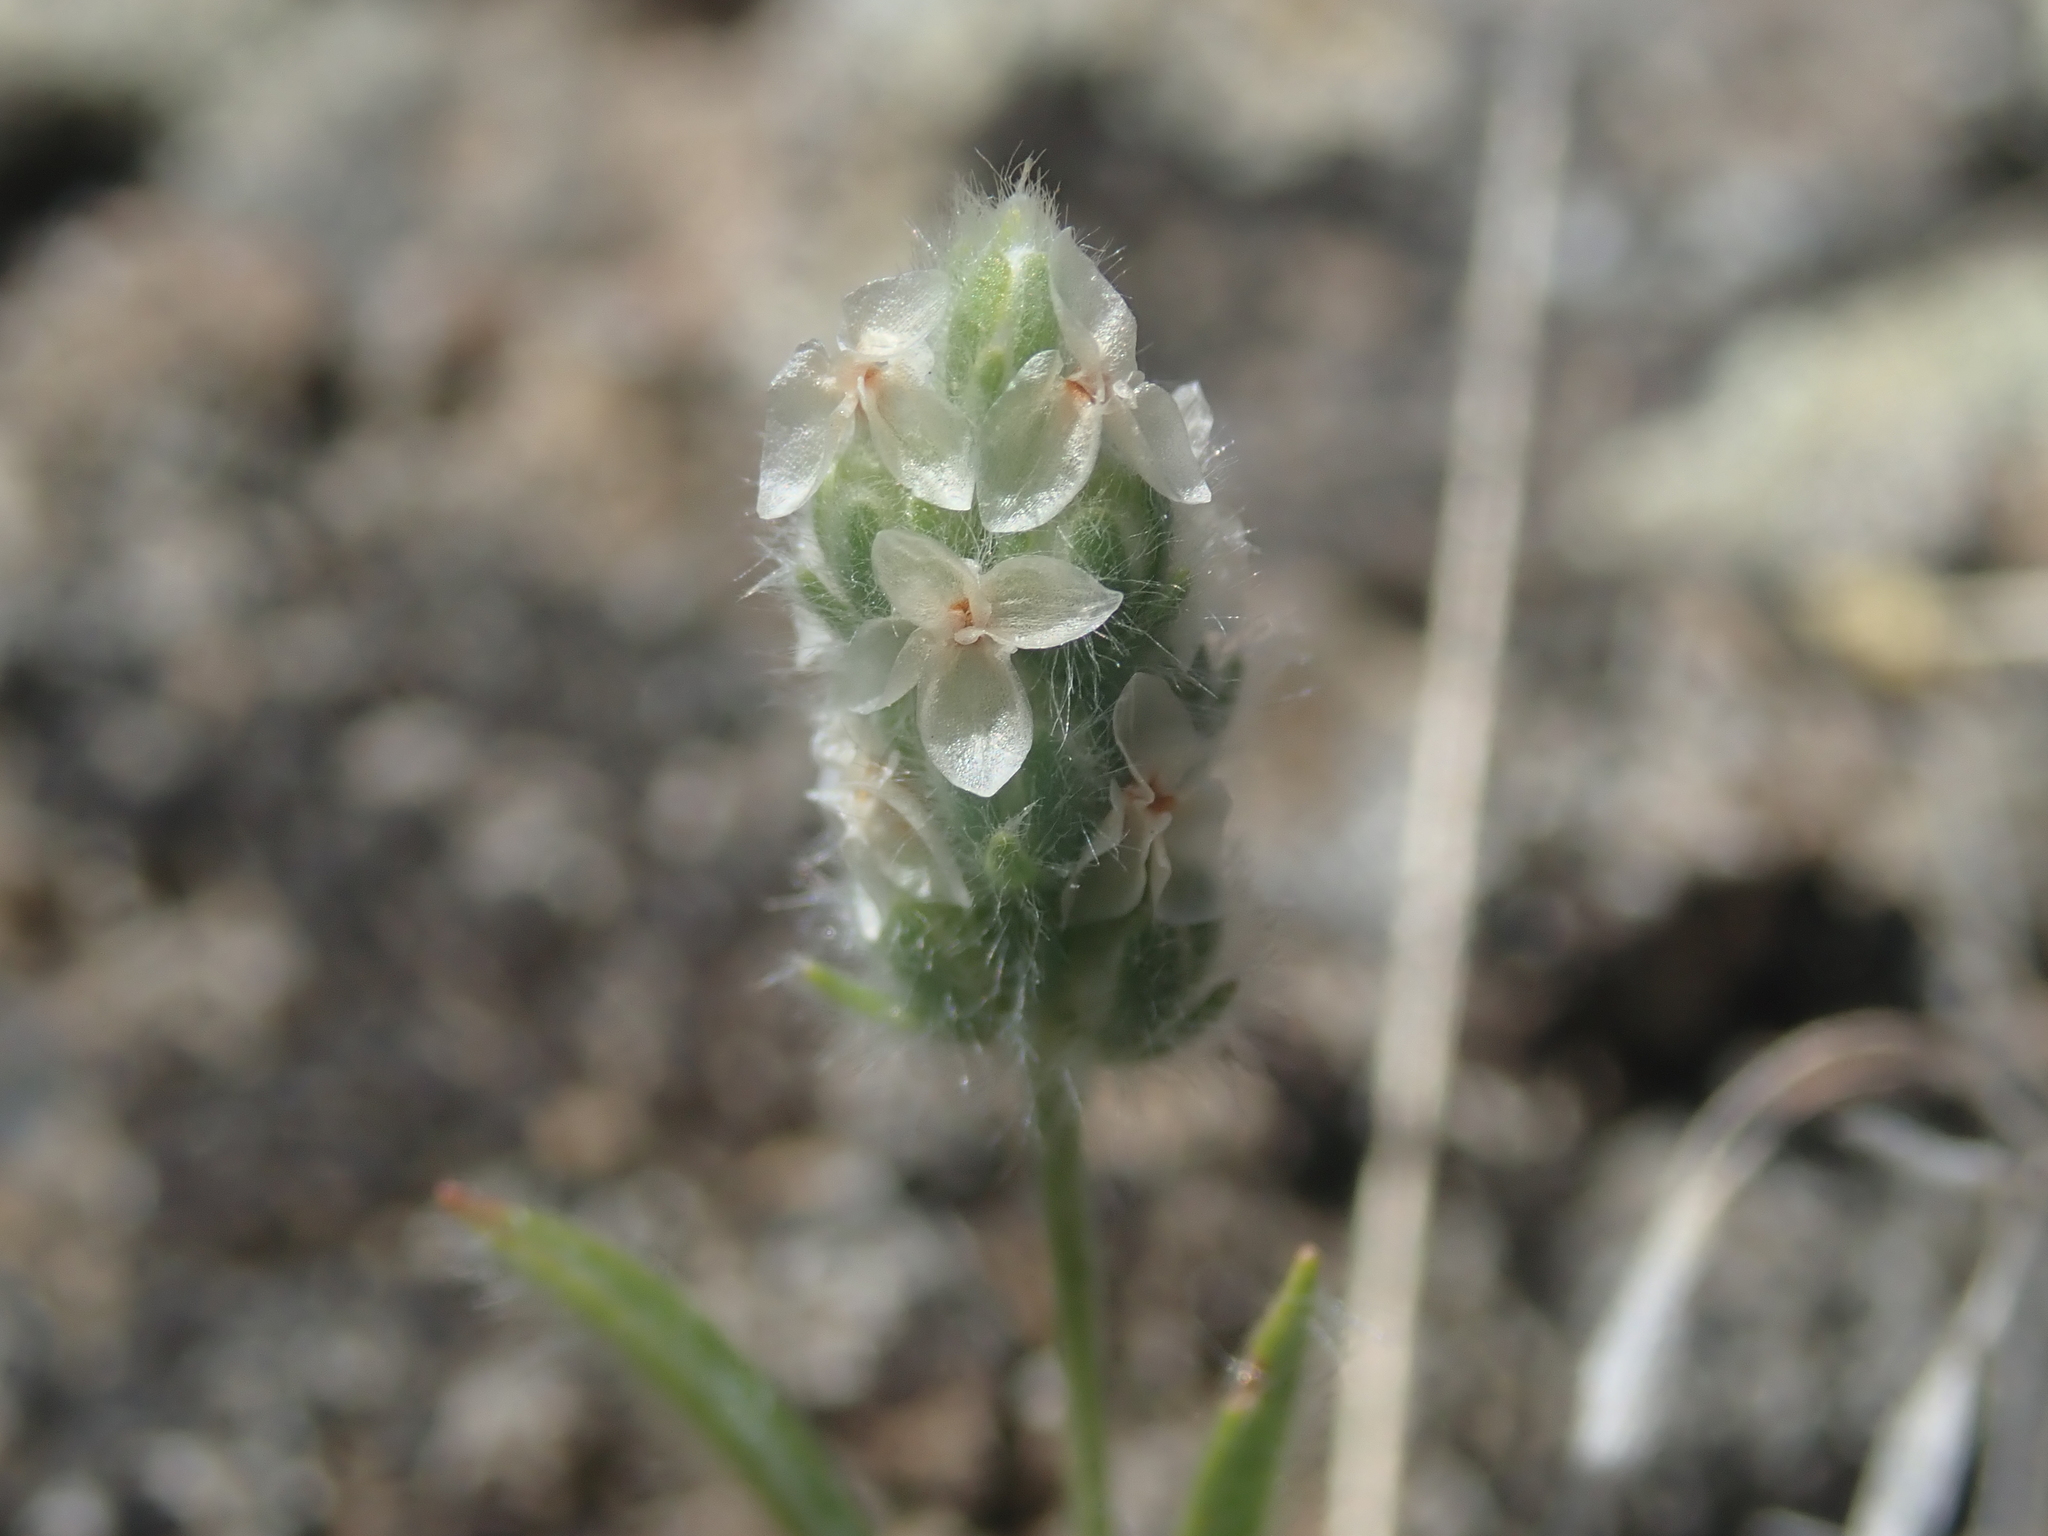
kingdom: Plantae
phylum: Tracheophyta
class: Magnoliopsida
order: Lamiales
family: Plantaginaceae
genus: Plantago
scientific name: Plantago patagonica
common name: Patagonia indian-wheat
